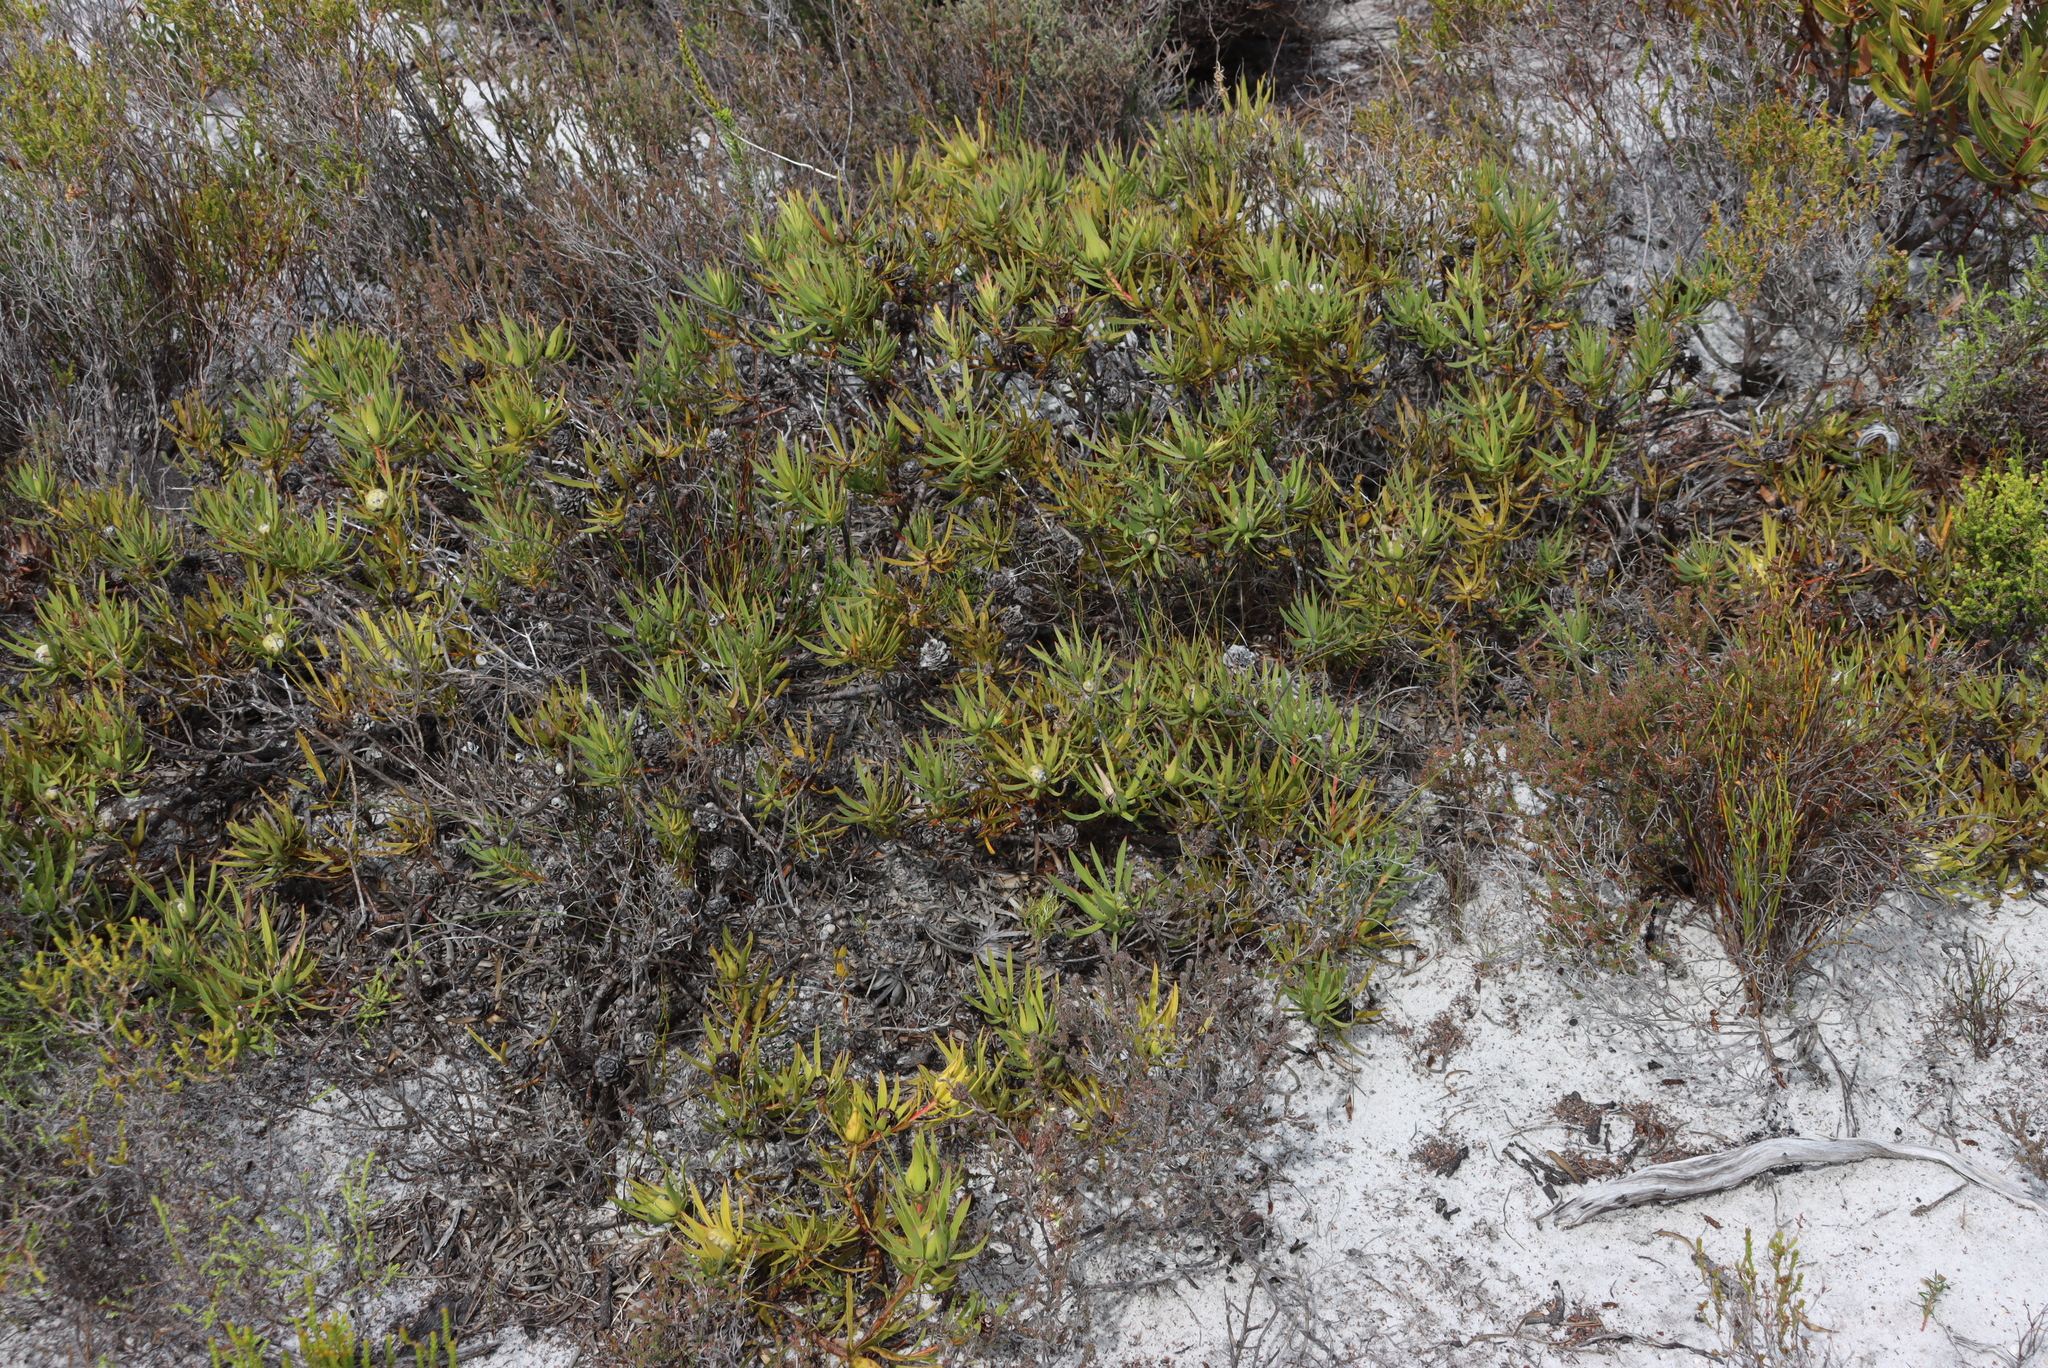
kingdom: Plantae
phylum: Tracheophyta
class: Magnoliopsida
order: Proteales
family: Proteaceae
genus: Leucadendron
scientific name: Leucadendron salignum
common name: Common sunshine conebush
